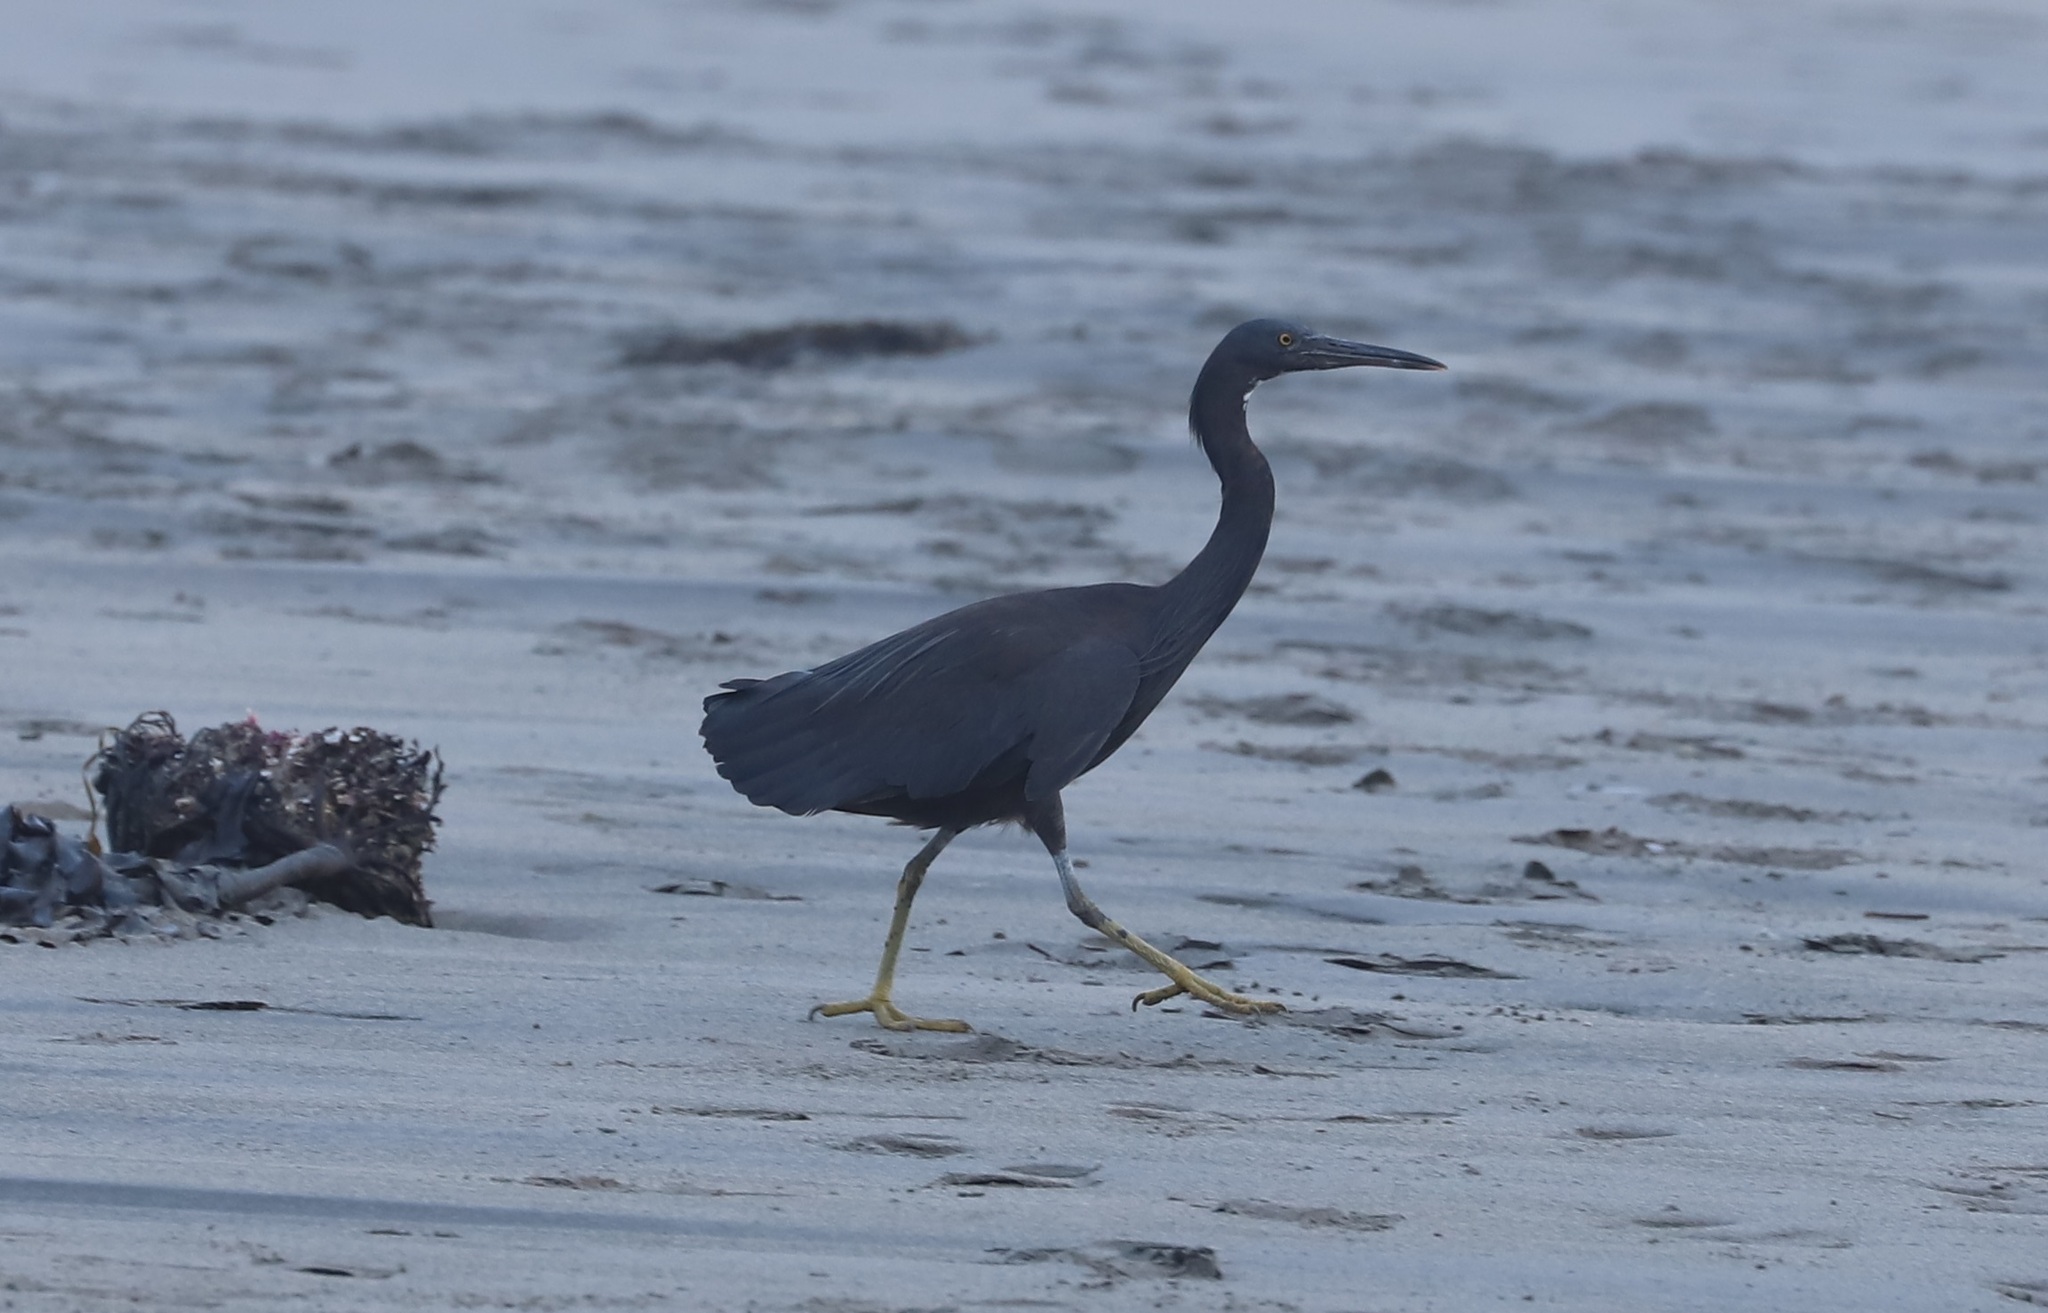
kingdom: Animalia
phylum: Chordata
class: Aves
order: Pelecaniformes
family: Ardeidae
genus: Egretta
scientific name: Egretta sacra
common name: Pacific reef heron
